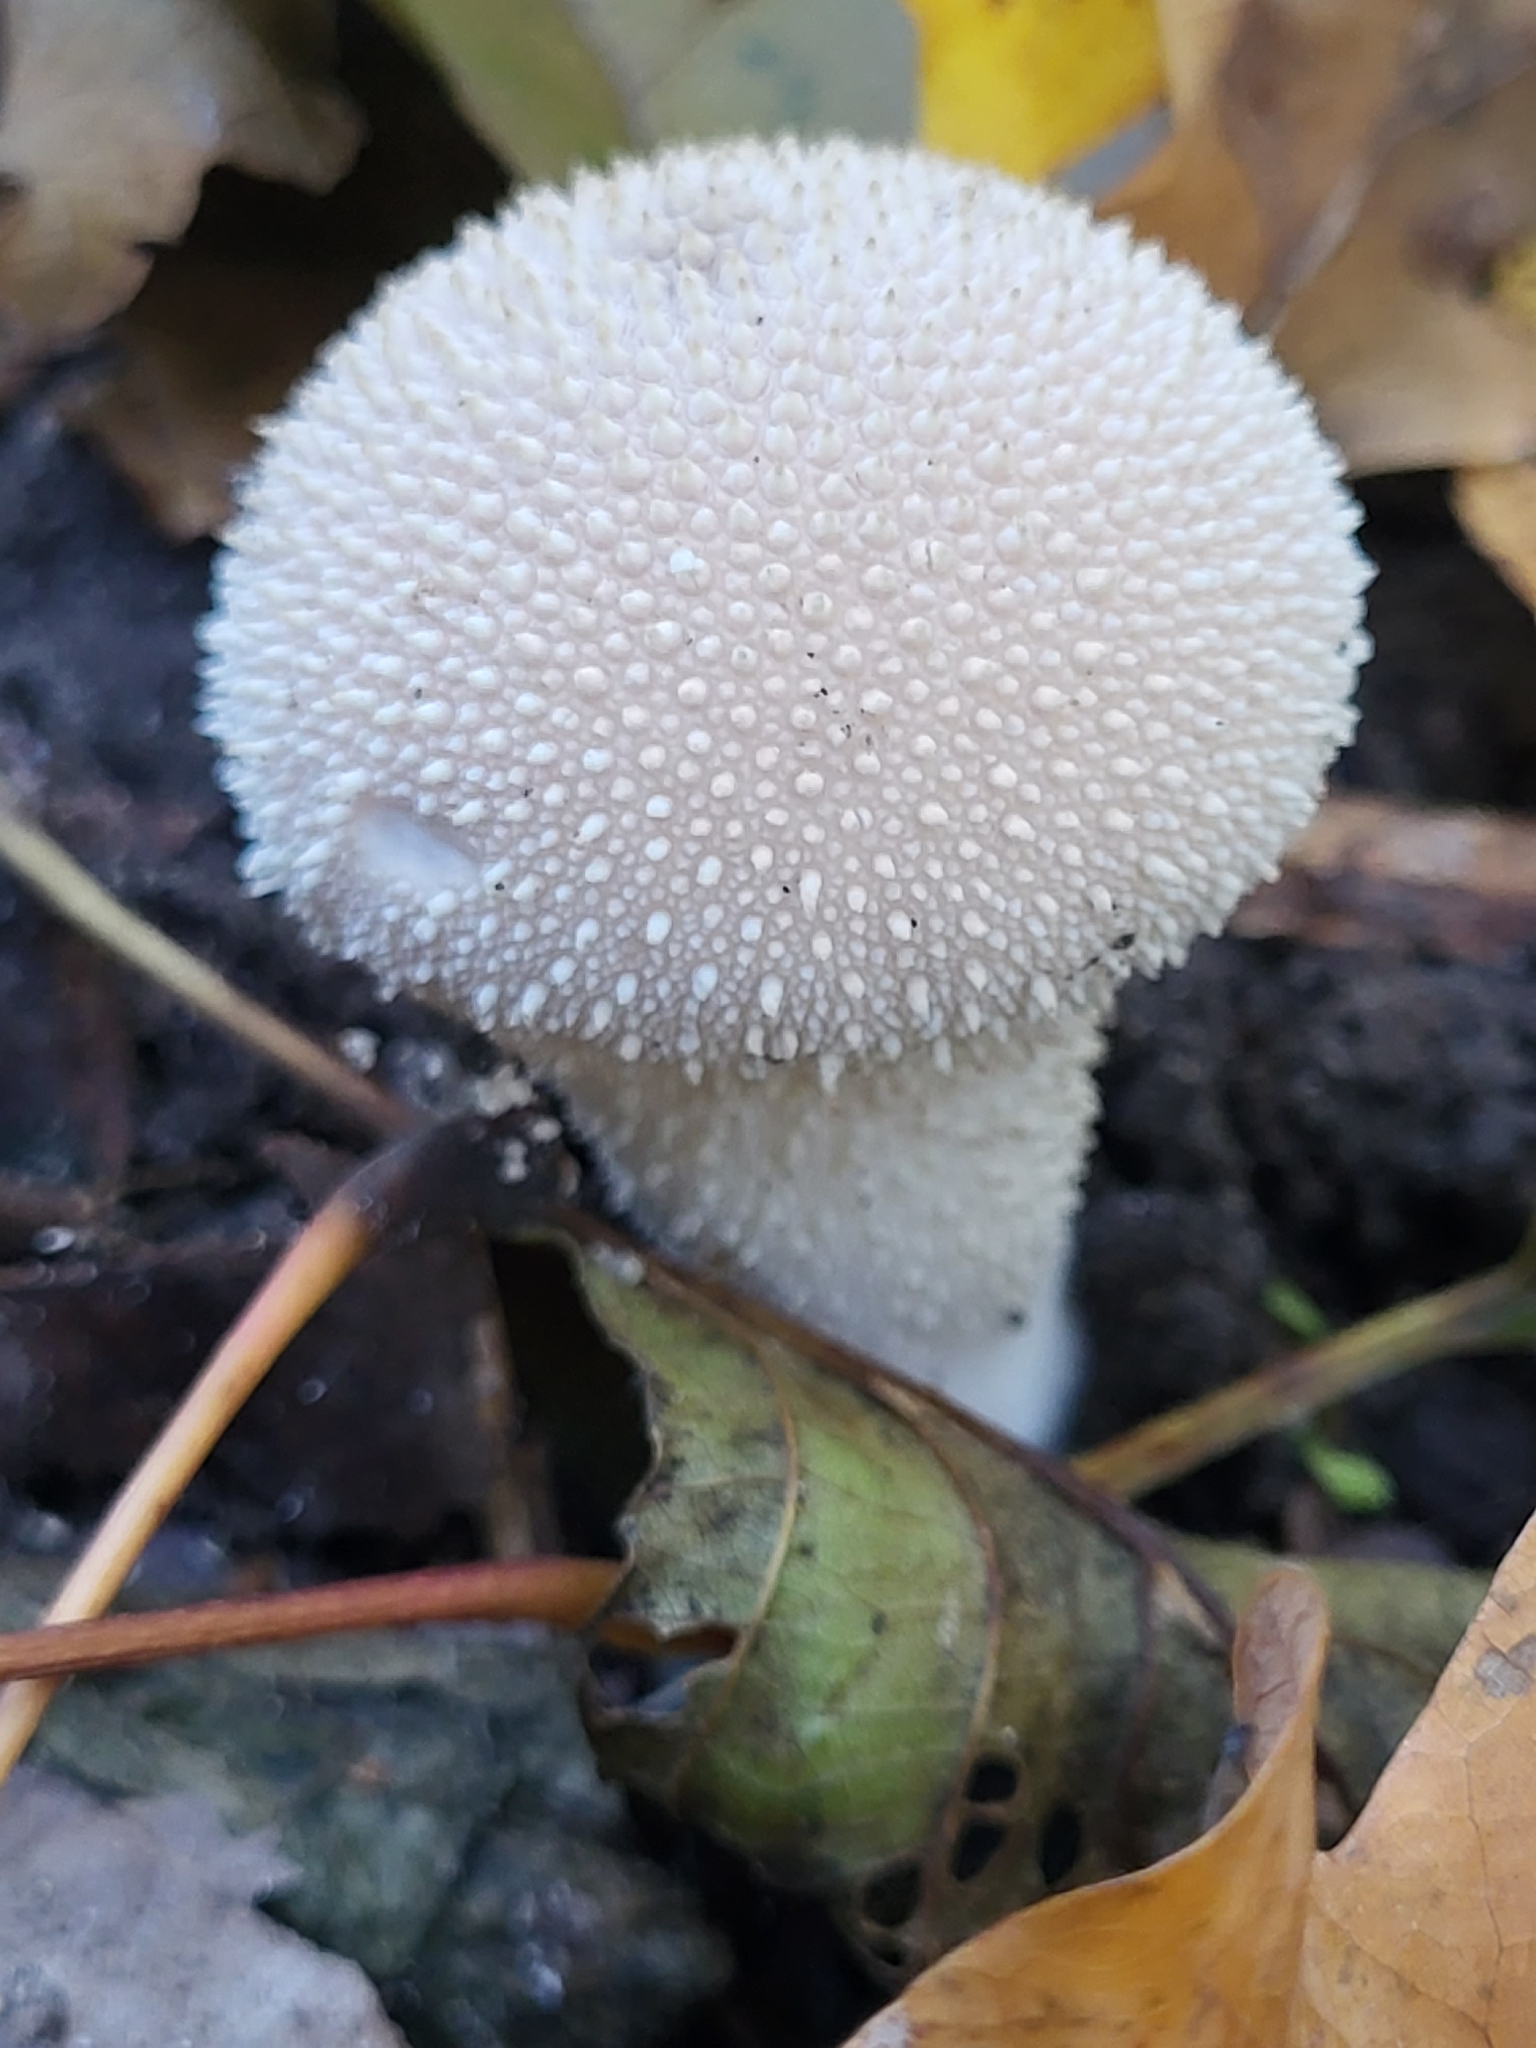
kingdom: Fungi
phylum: Basidiomycota
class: Agaricomycetes
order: Agaricales
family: Lycoperdaceae
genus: Lycoperdon
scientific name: Lycoperdon perlatum
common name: Common puffball
